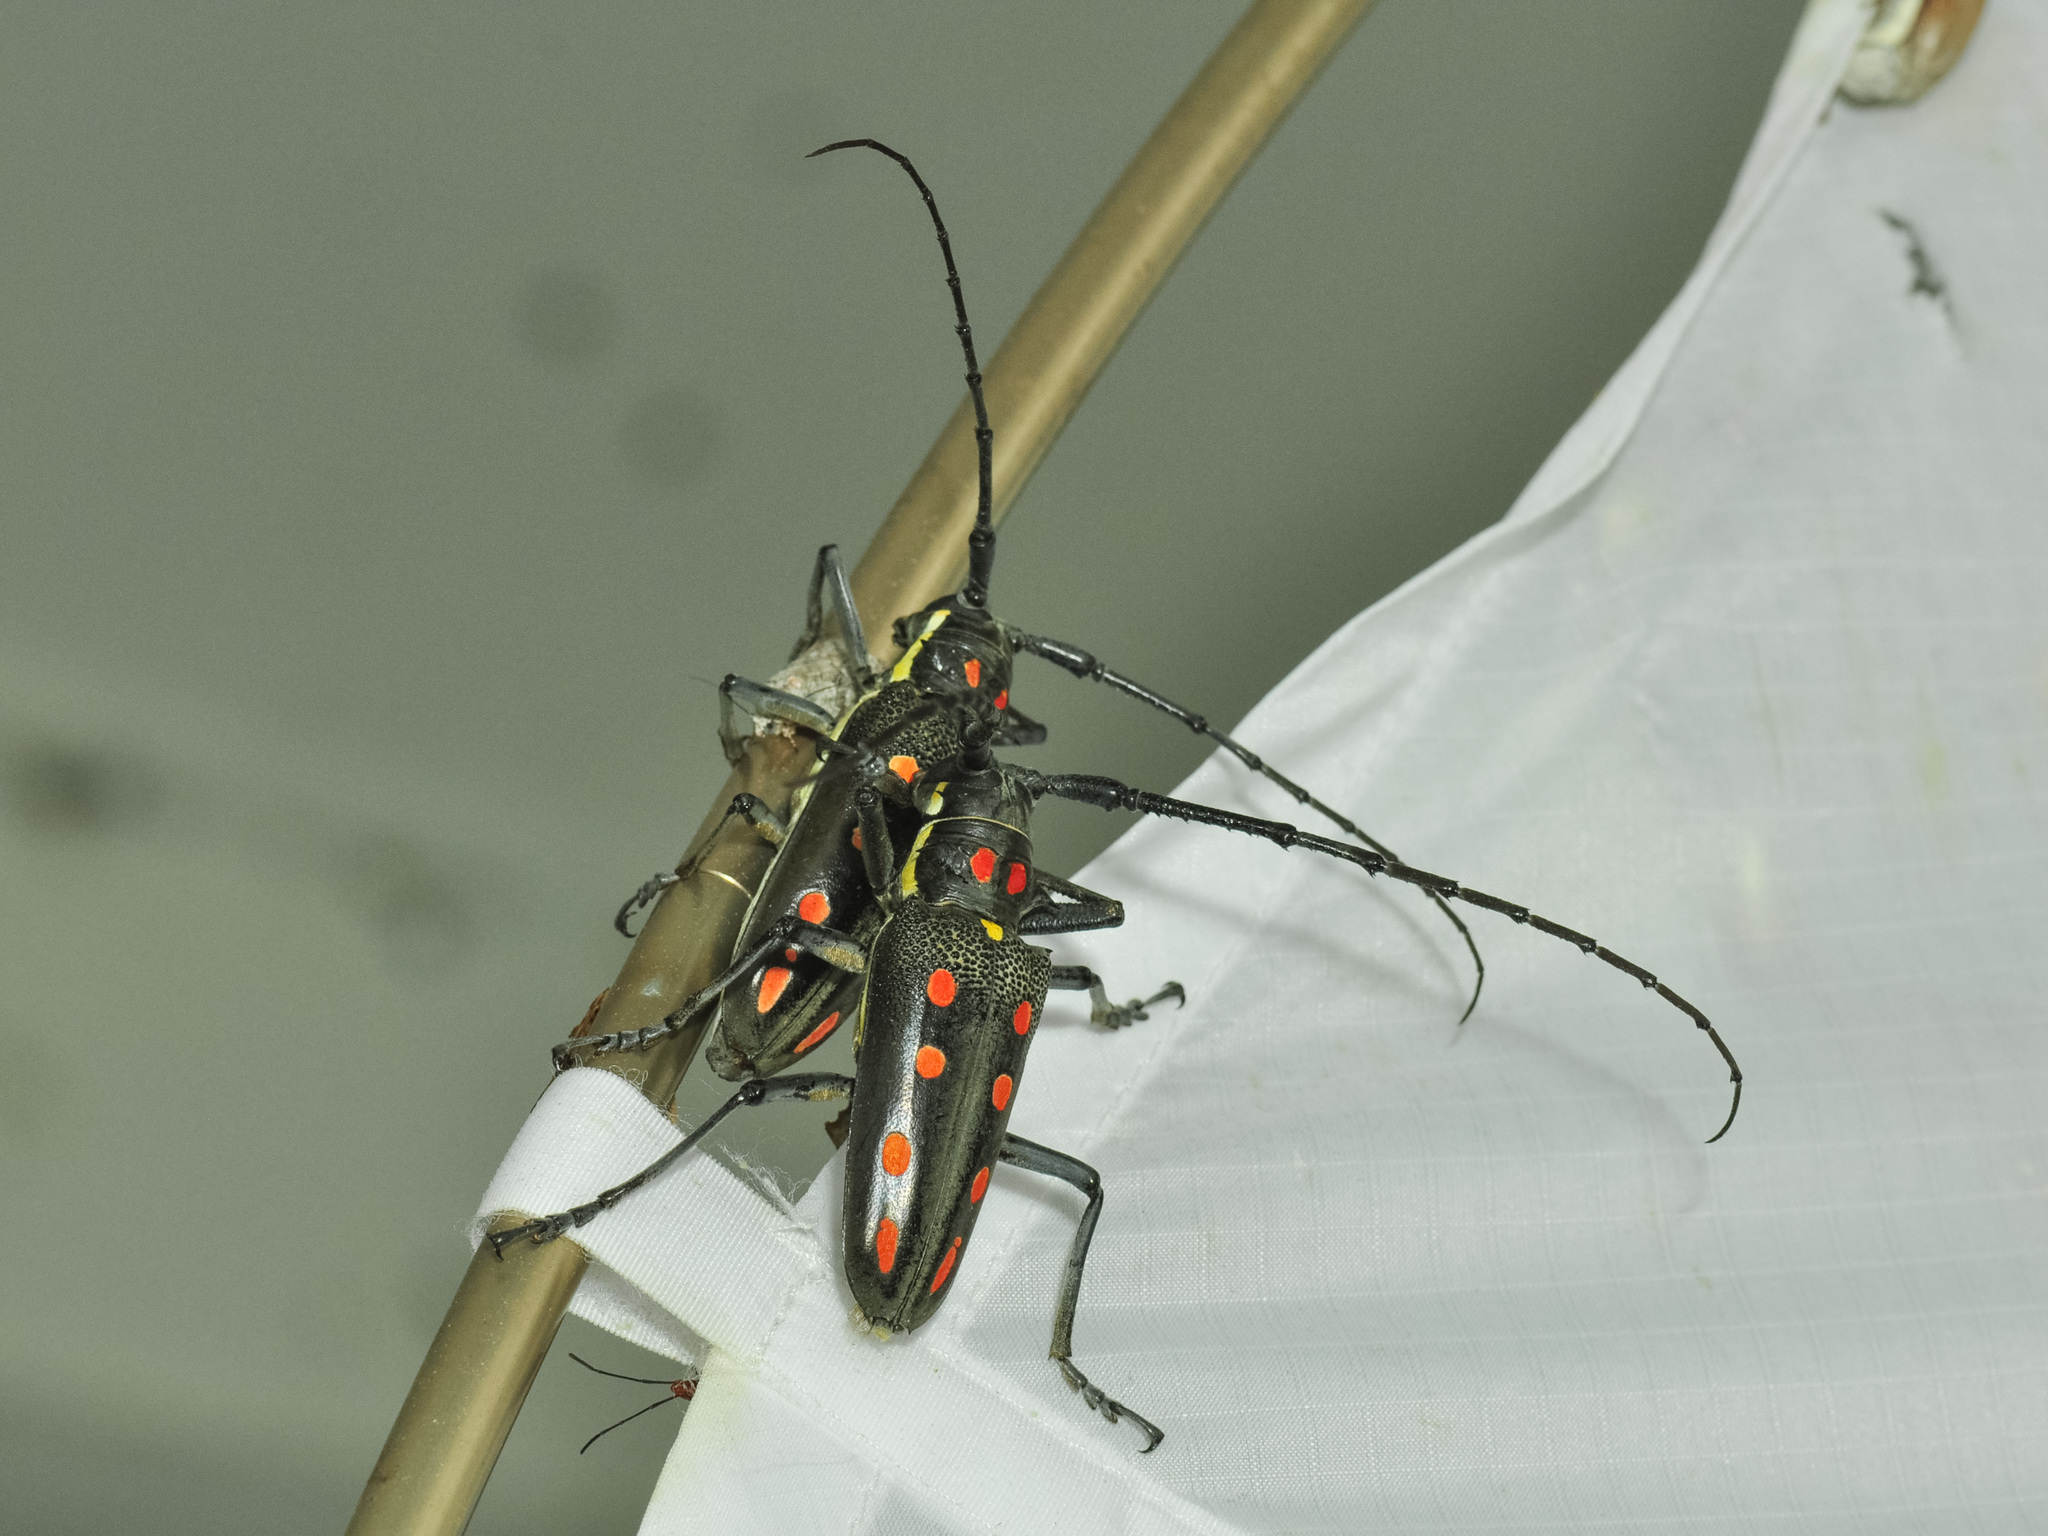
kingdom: Animalia
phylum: Arthropoda
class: Insecta
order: Coleoptera
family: Cerambycidae
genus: Batocera
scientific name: Batocera parryi
